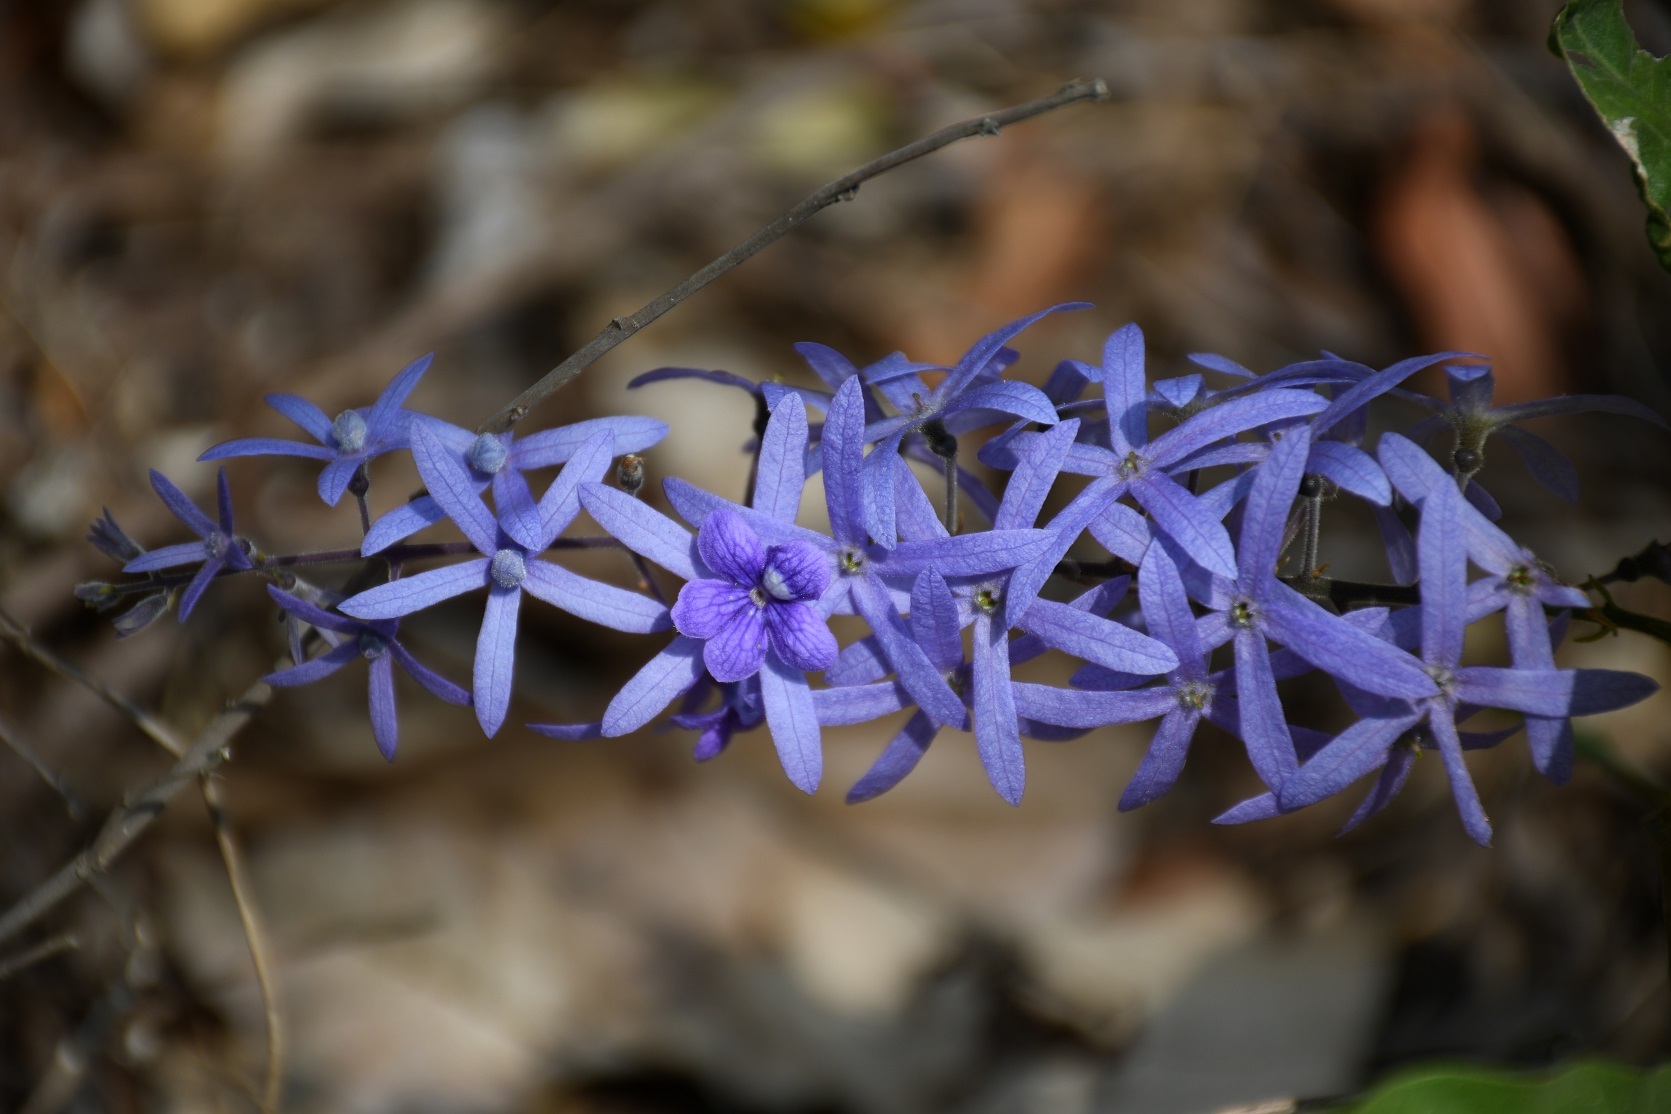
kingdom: Plantae
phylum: Tracheophyta
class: Magnoliopsida
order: Lamiales
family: Verbenaceae
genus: Petrea
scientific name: Petrea volubilis
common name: Queen's-wreath
